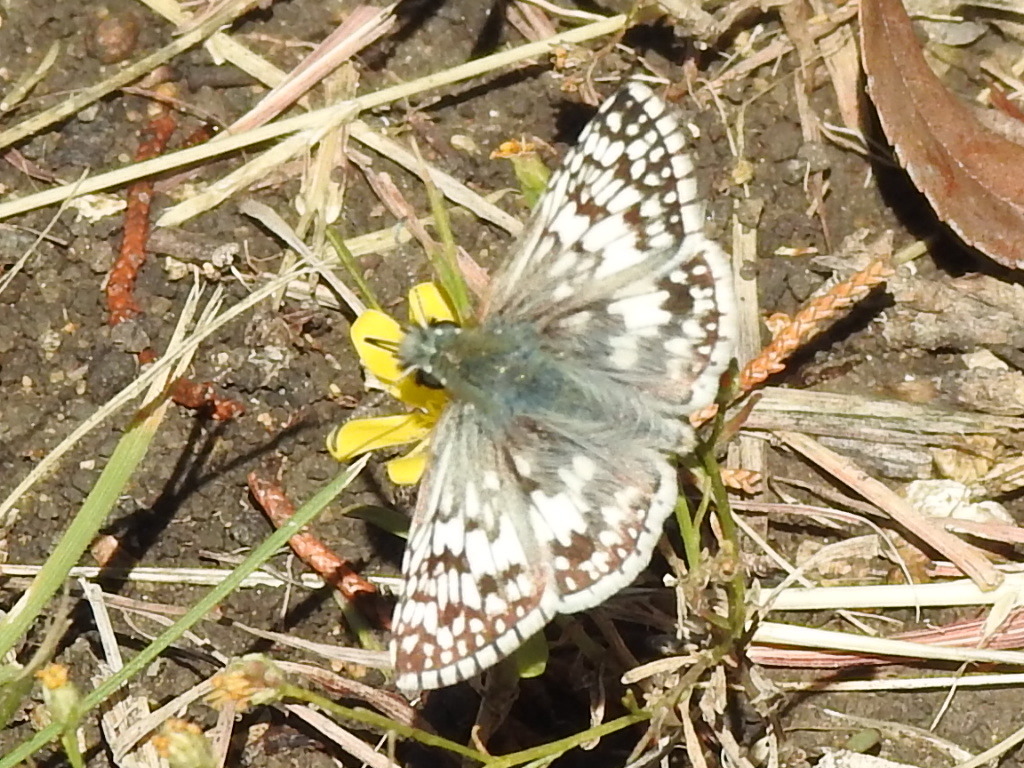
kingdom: Animalia
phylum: Arthropoda
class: Insecta
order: Lepidoptera
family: Hesperiidae
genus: Burnsius
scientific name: Burnsius
